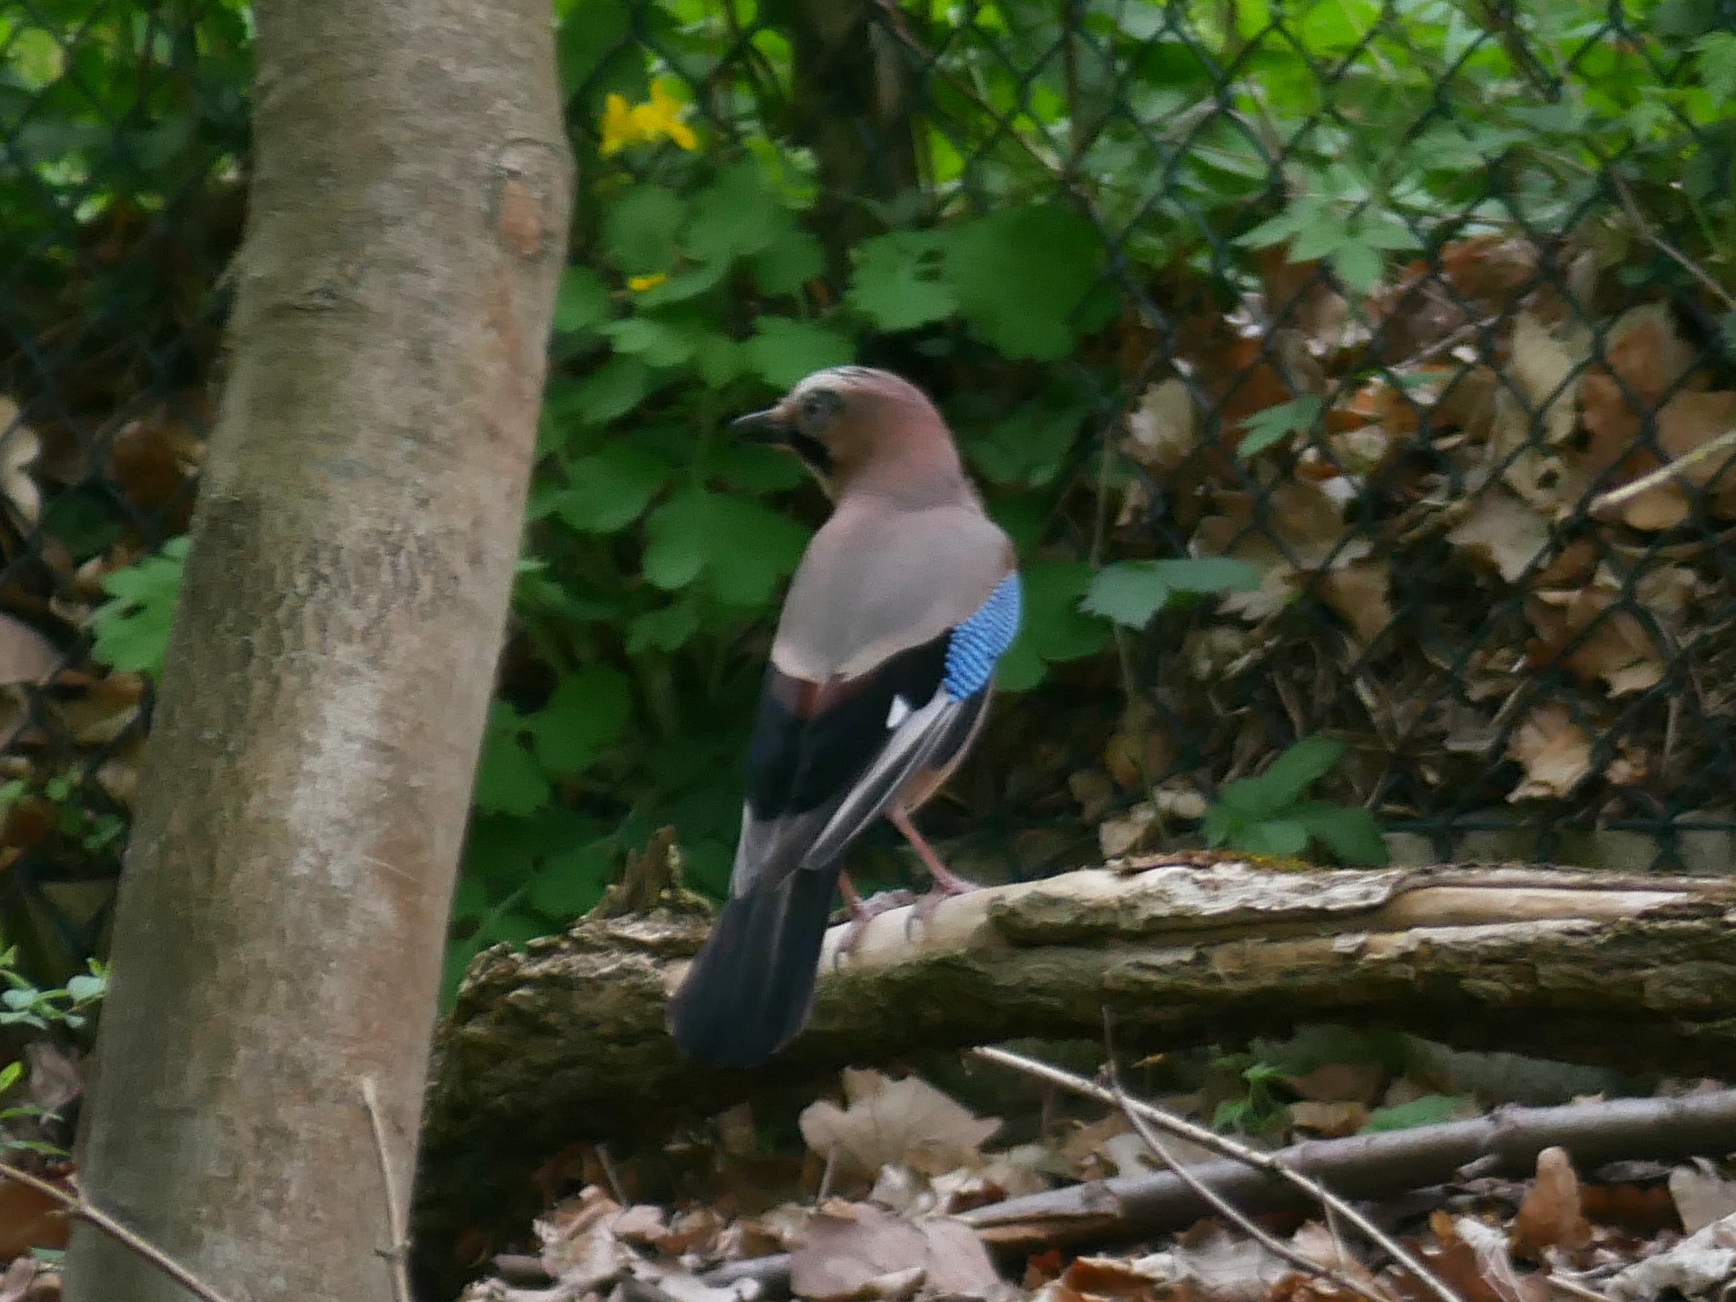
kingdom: Animalia
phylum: Chordata
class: Aves
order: Passeriformes
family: Corvidae
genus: Garrulus
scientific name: Garrulus glandarius
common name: Eurasian jay
